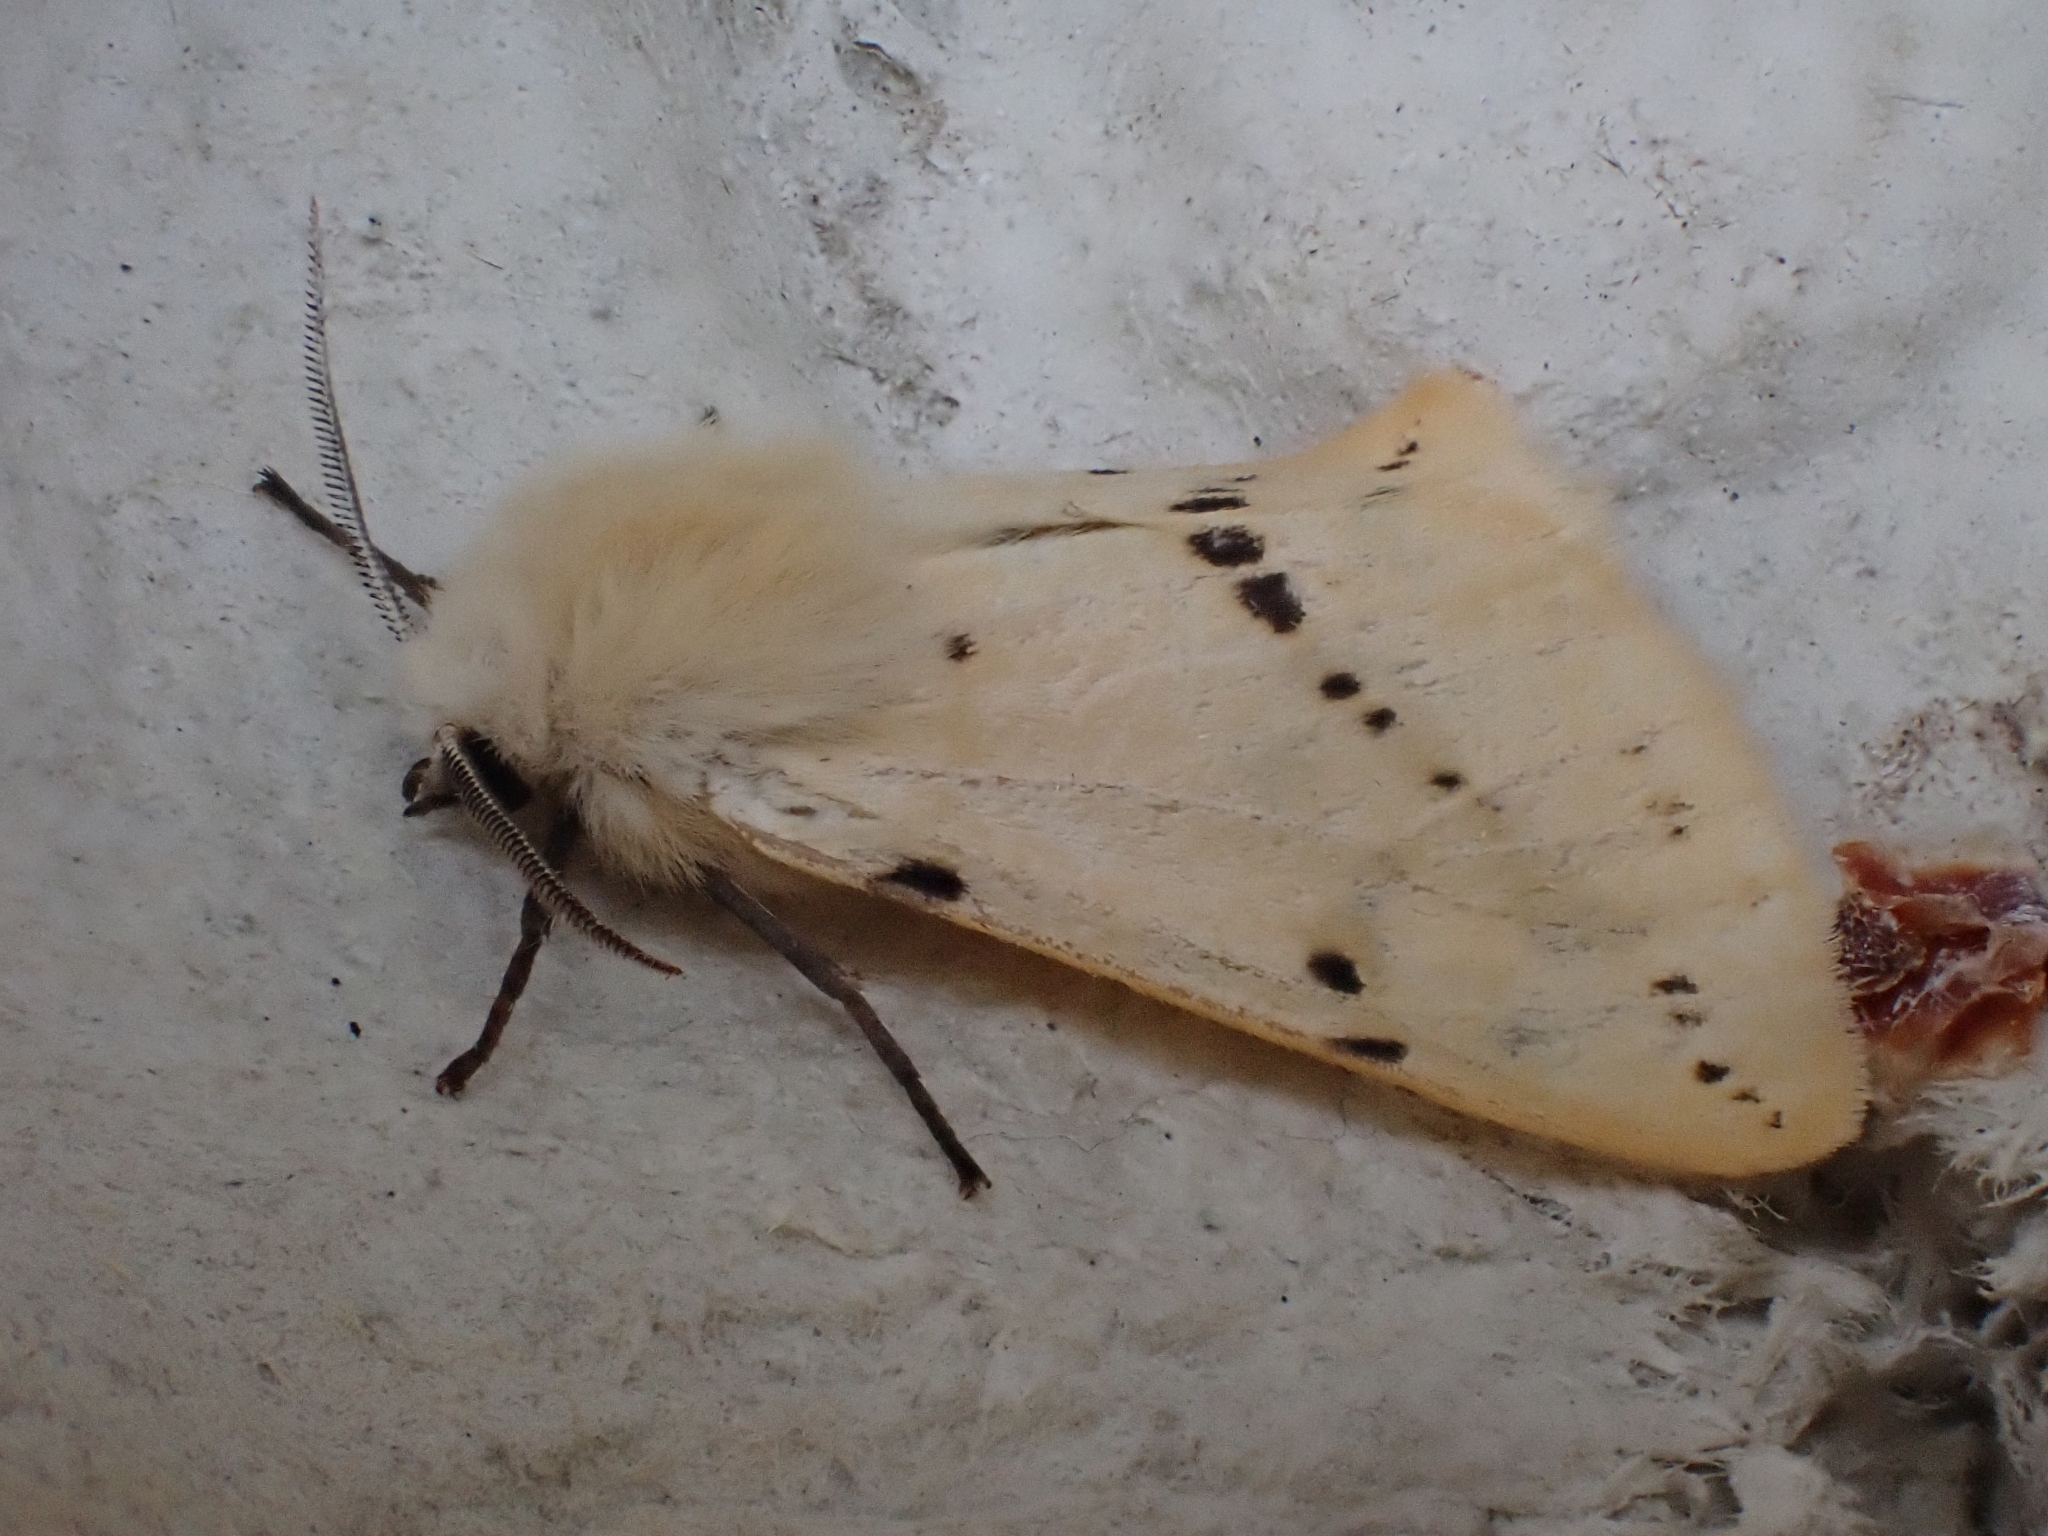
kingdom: Animalia
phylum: Arthropoda
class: Insecta
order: Lepidoptera
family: Erebidae
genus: Spilarctia
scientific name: Spilarctia lutea
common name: Buff ermine
